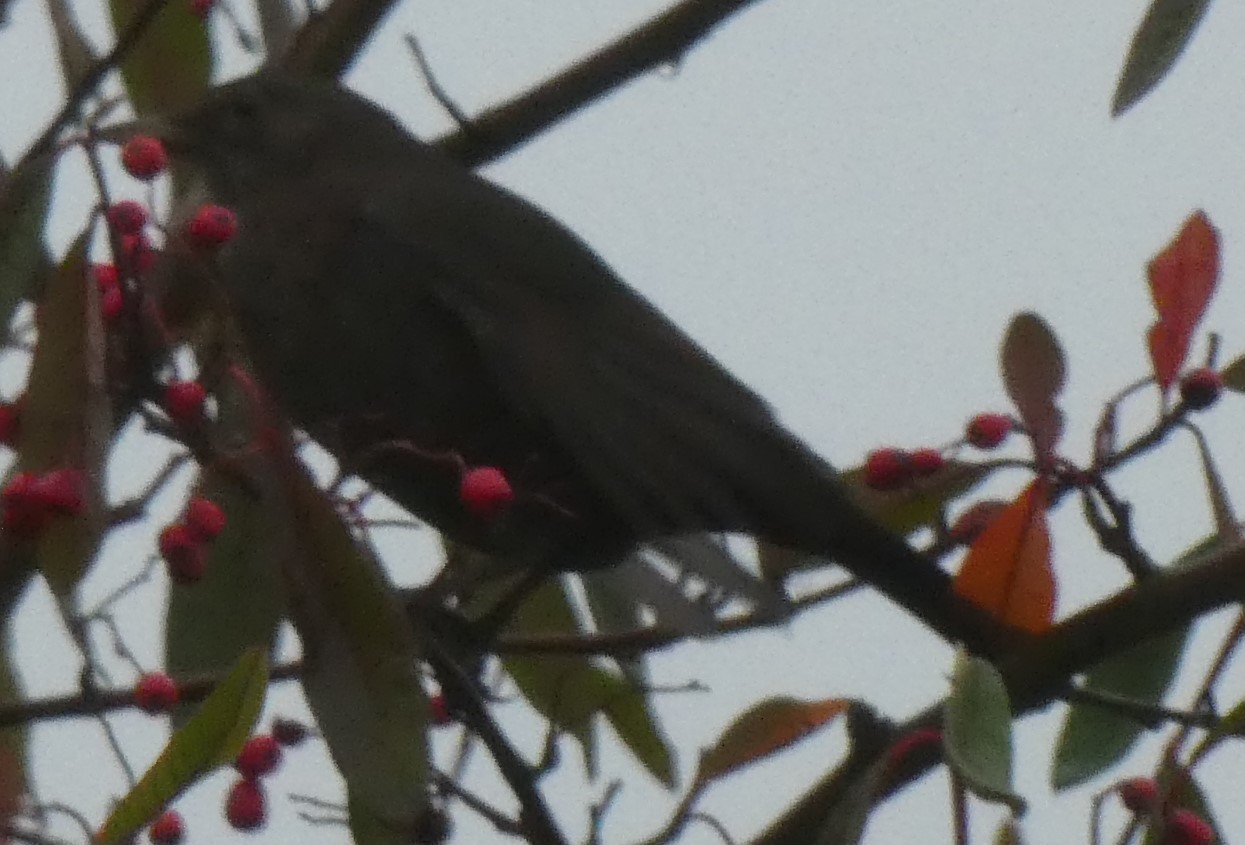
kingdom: Animalia
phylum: Chordata
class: Aves
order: Passeriformes
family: Turdidae
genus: Turdus
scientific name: Turdus merula
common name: Common blackbird
